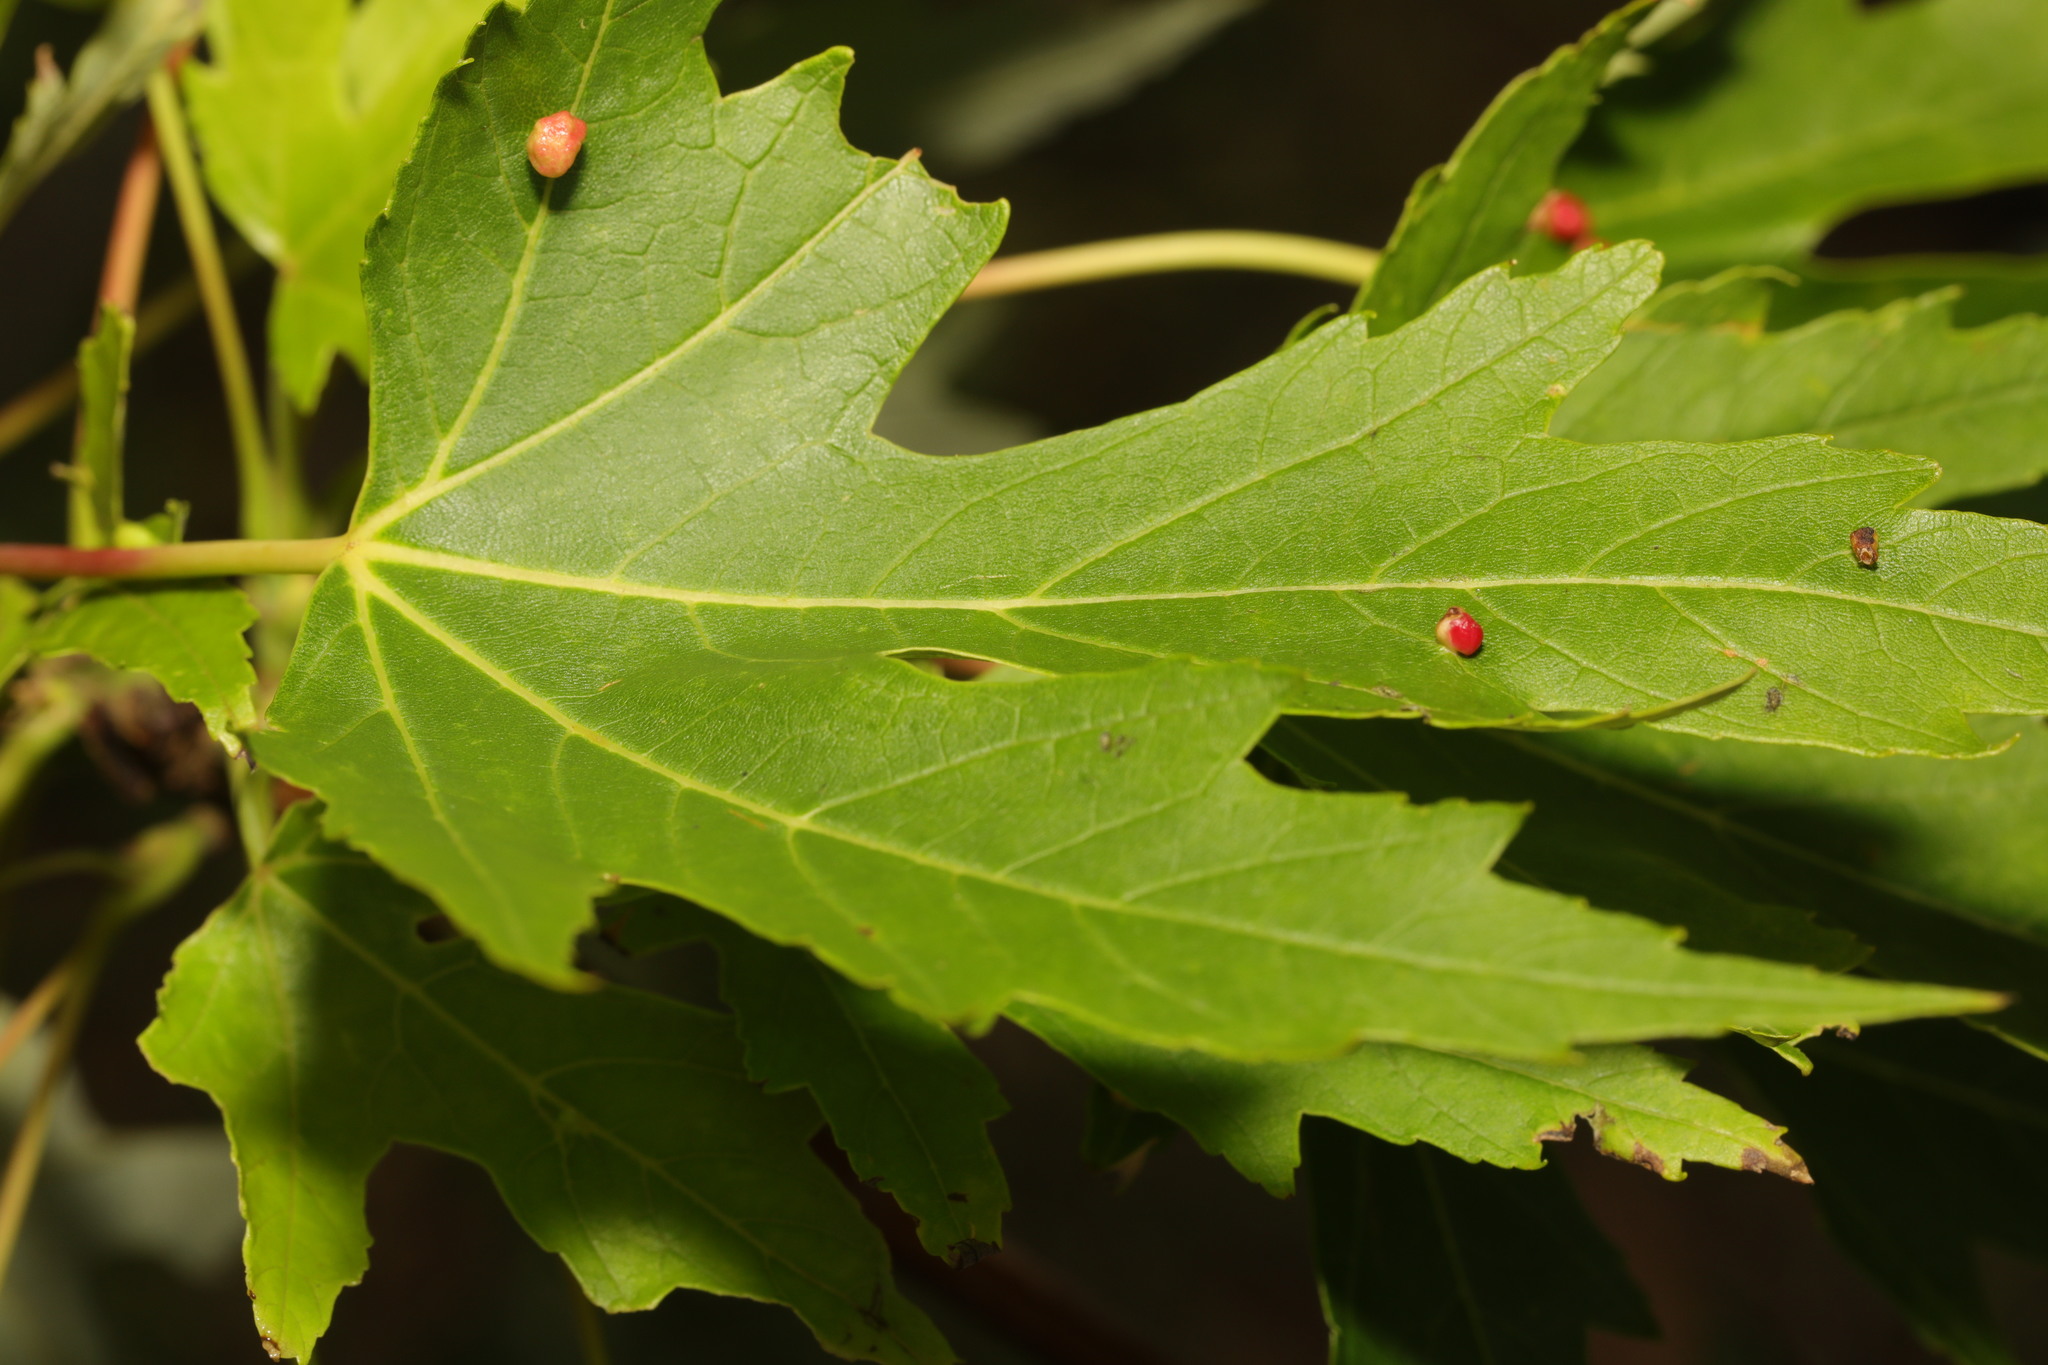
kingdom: Animalia
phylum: Arthropoda
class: Arachnida
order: Trombidiformes
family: Eriophyidae
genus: Vasates
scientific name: Vasates quadripedes
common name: Maple bladder gall mite
